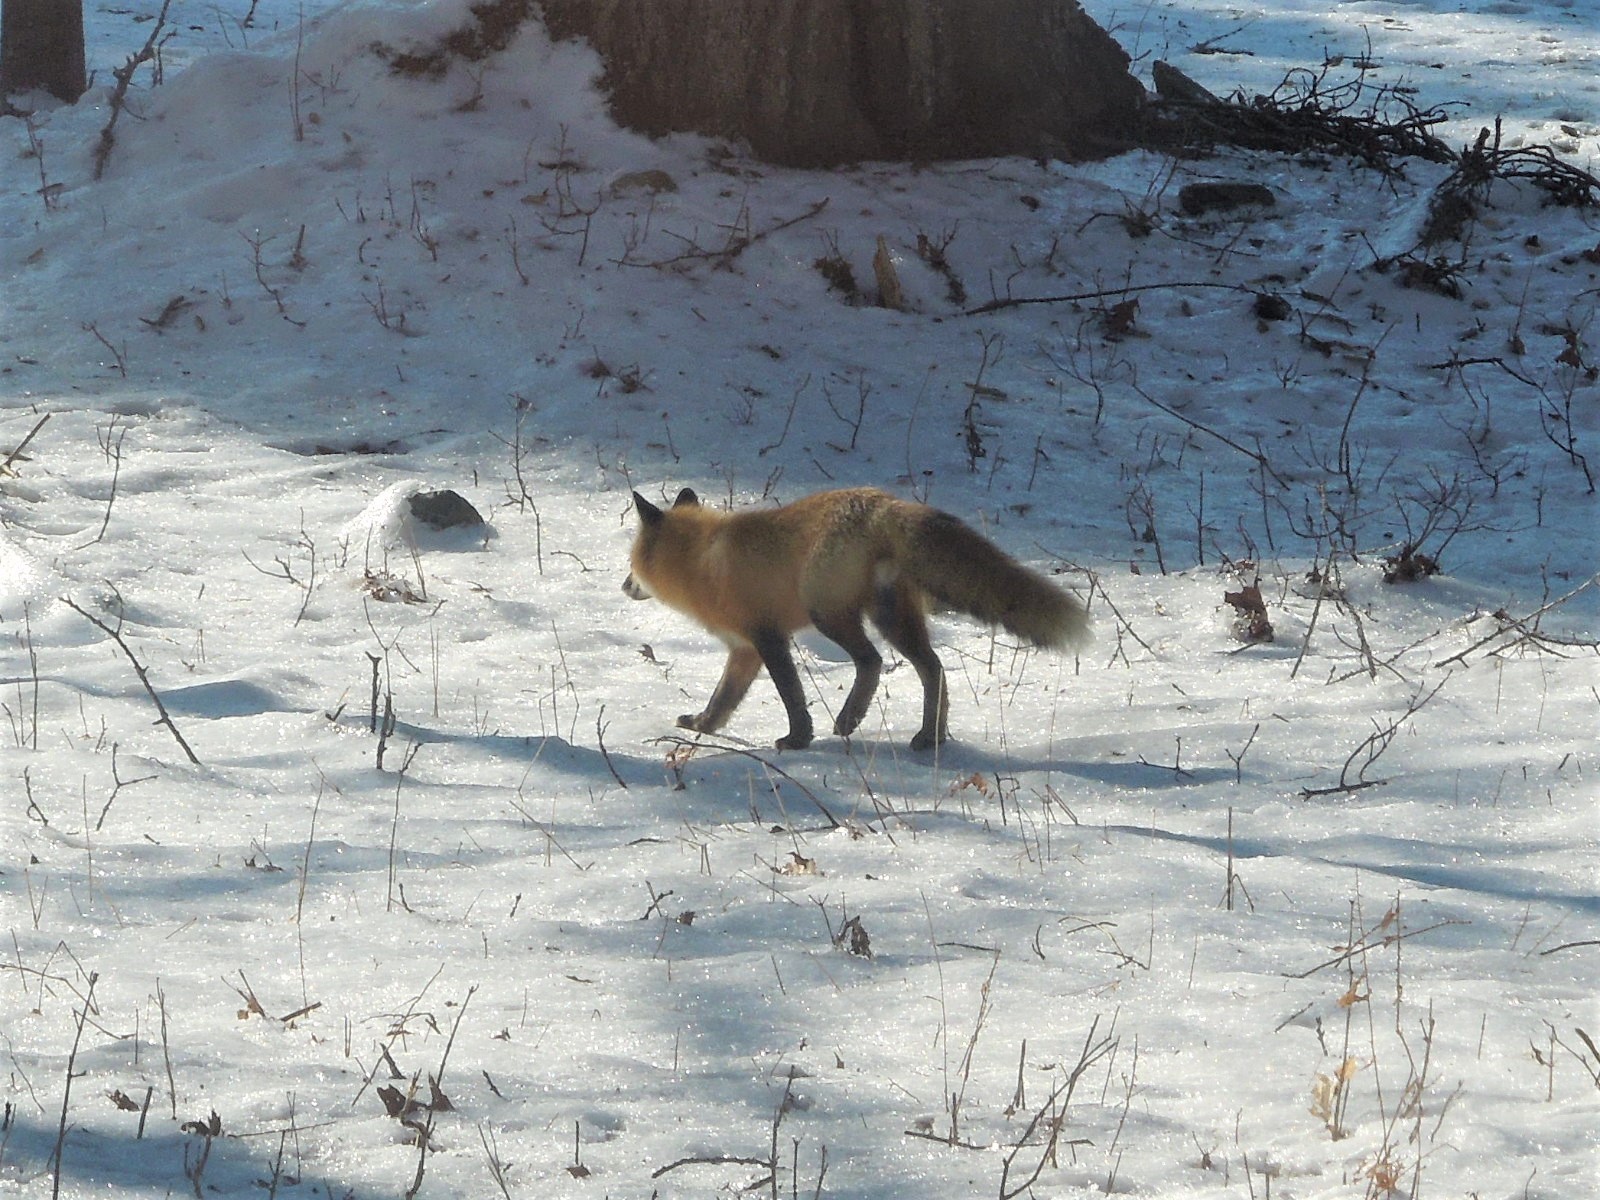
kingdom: Animalia
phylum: Chordata
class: Mammalia
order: Carnivora
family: Canidae
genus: Vulpes
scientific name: Vulpes vulpes
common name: Red fox
